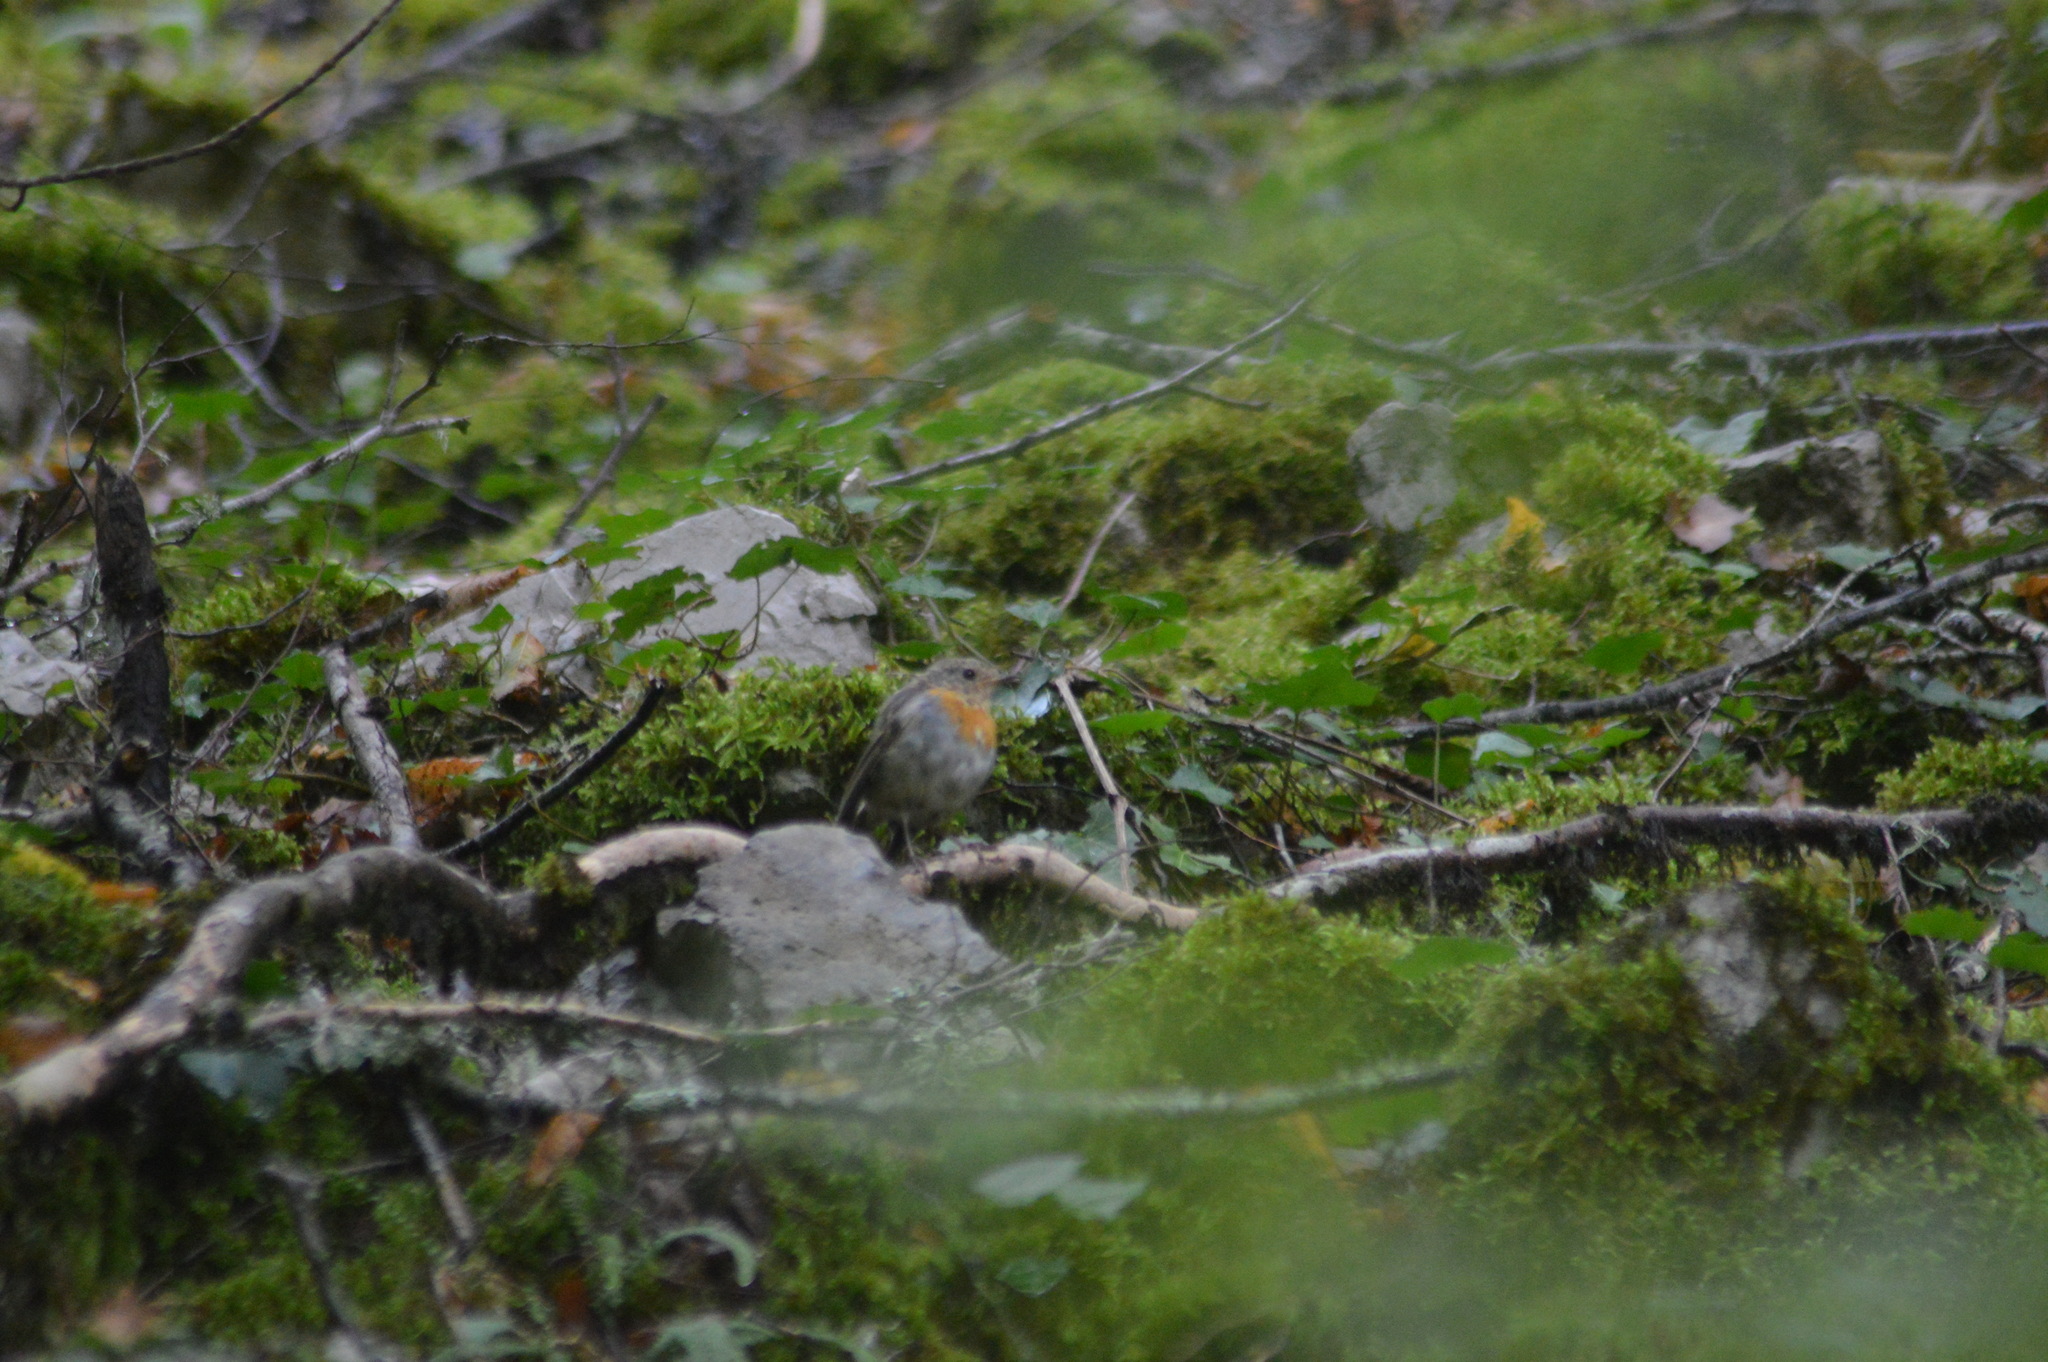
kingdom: Animalia
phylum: Chordata
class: Aves
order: Passeriformes
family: Muscicapidae
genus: Erithacus
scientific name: Erithacus rubecula
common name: European robin
